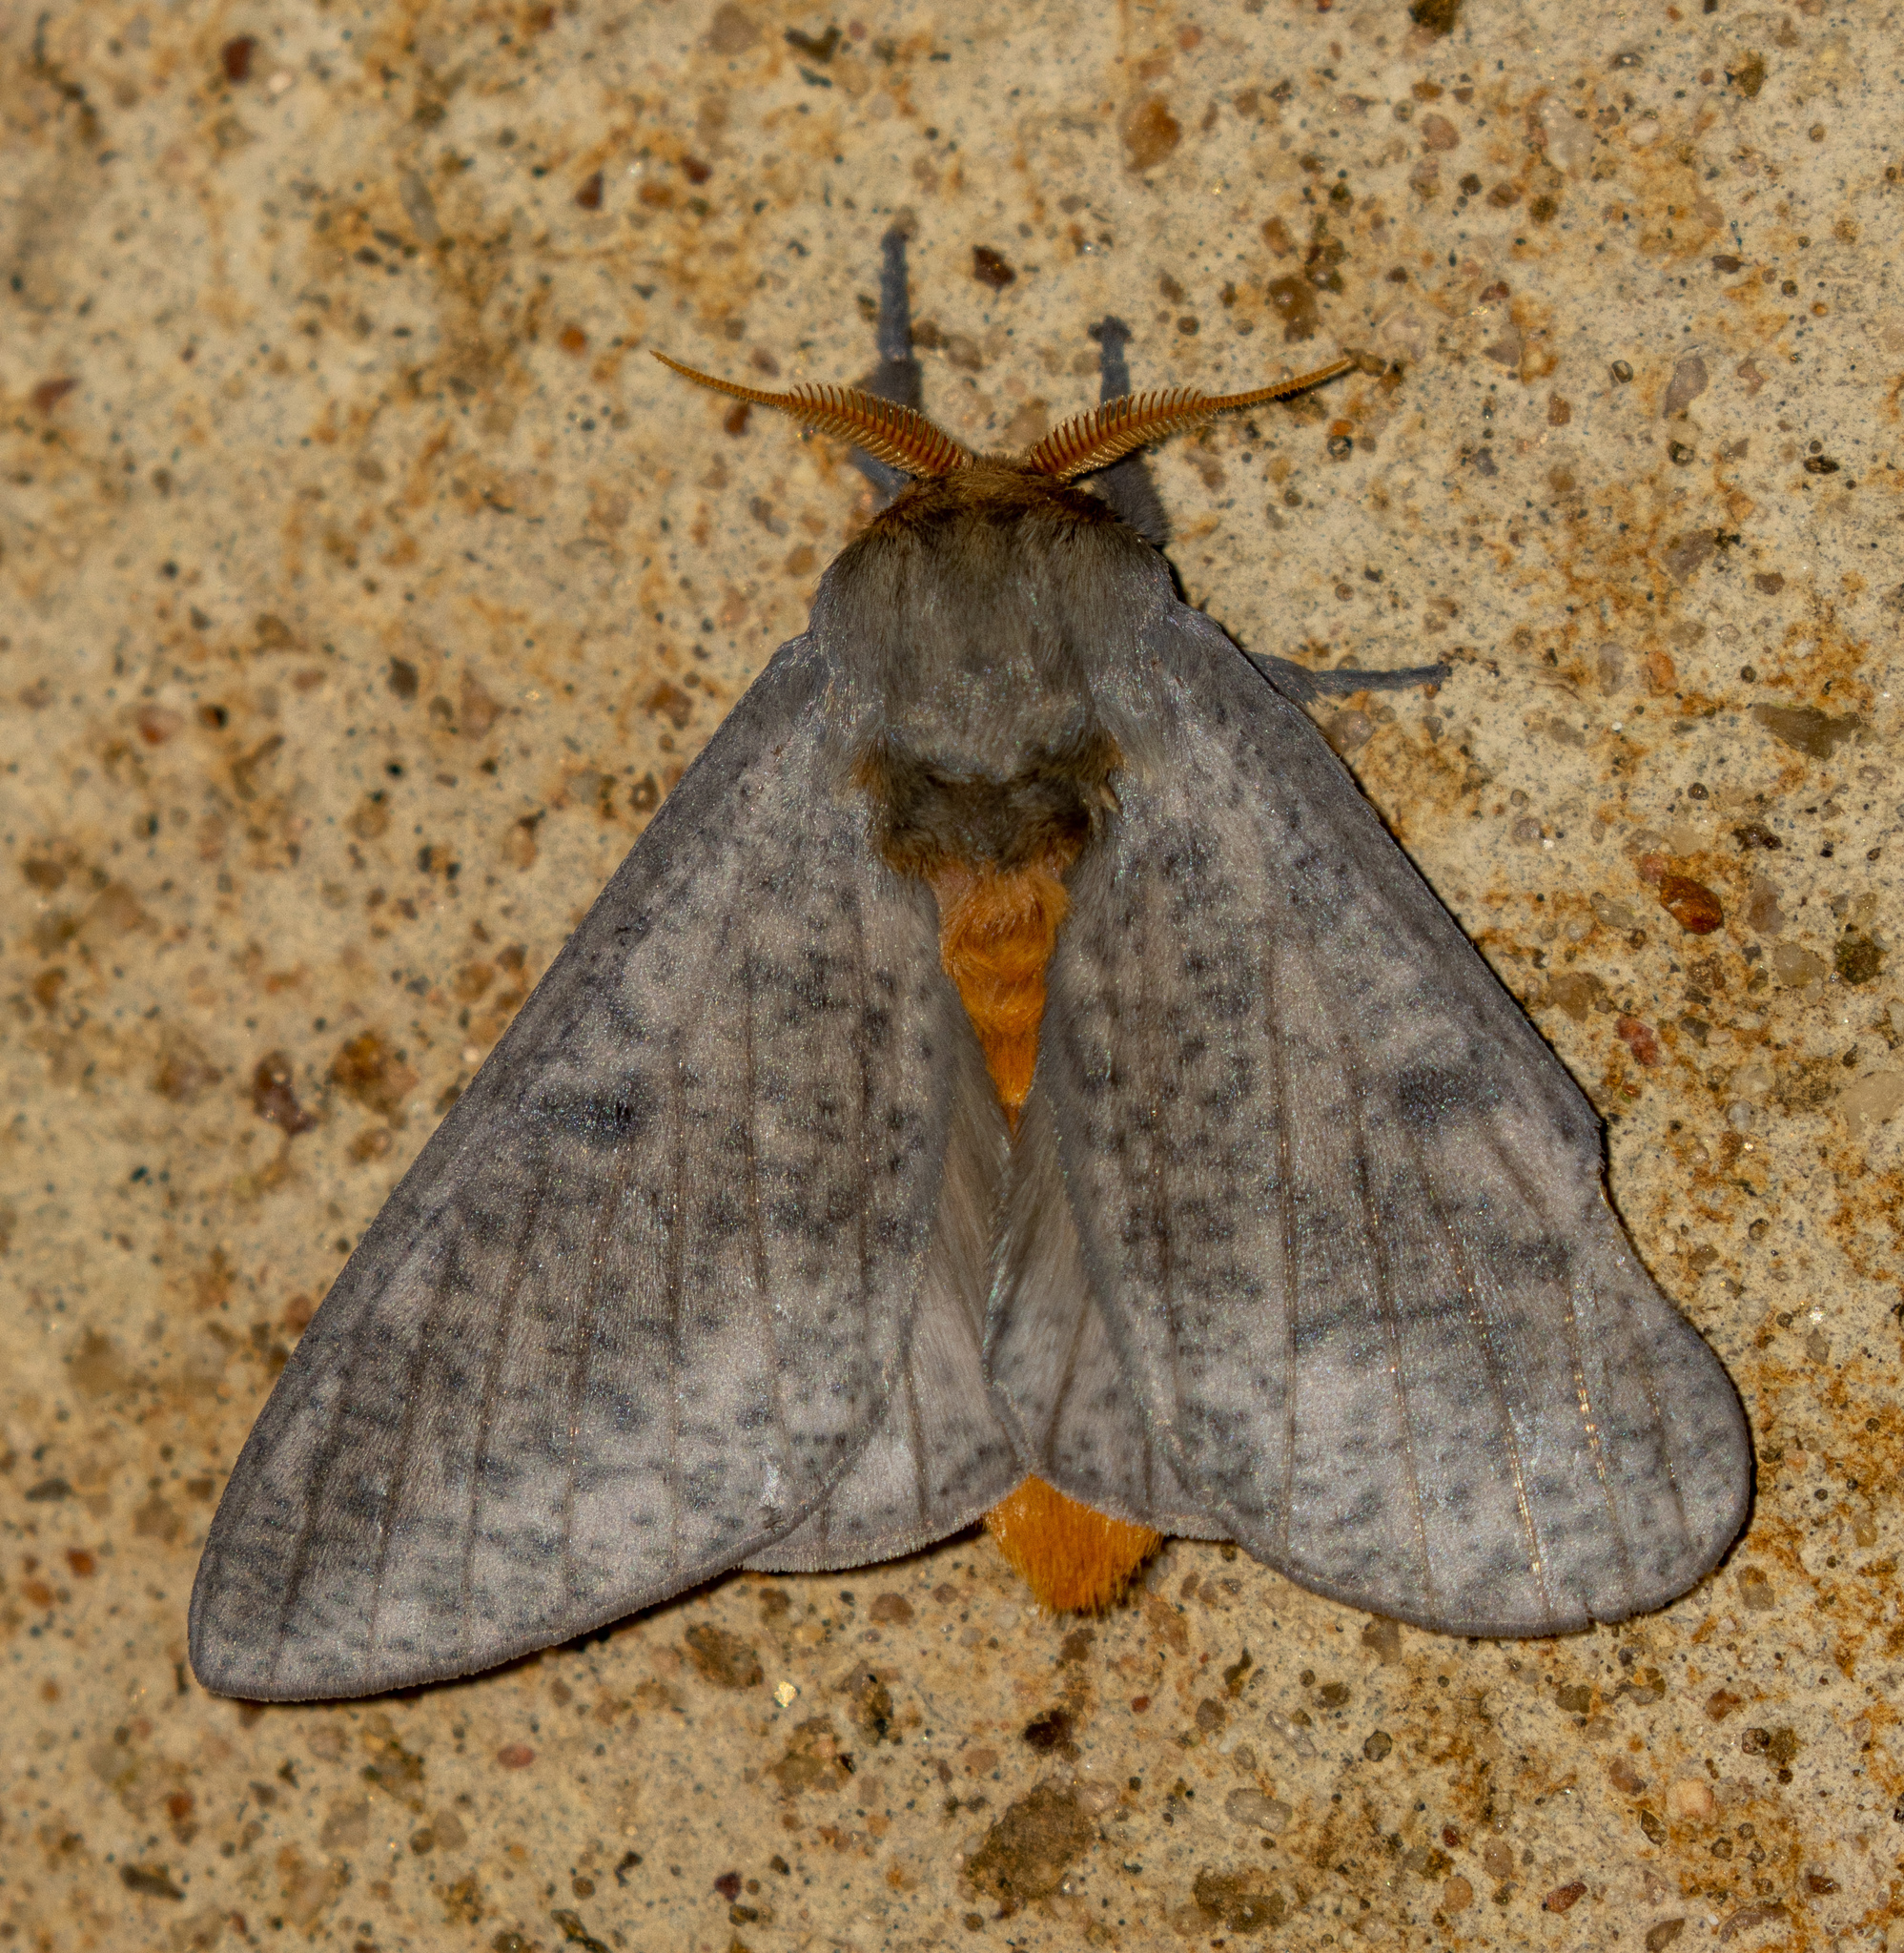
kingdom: Animalia
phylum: Arthropoda
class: Insecta
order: Lepidoptera
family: Saturniidae
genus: Scolesa
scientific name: Scolesa nebulosa
